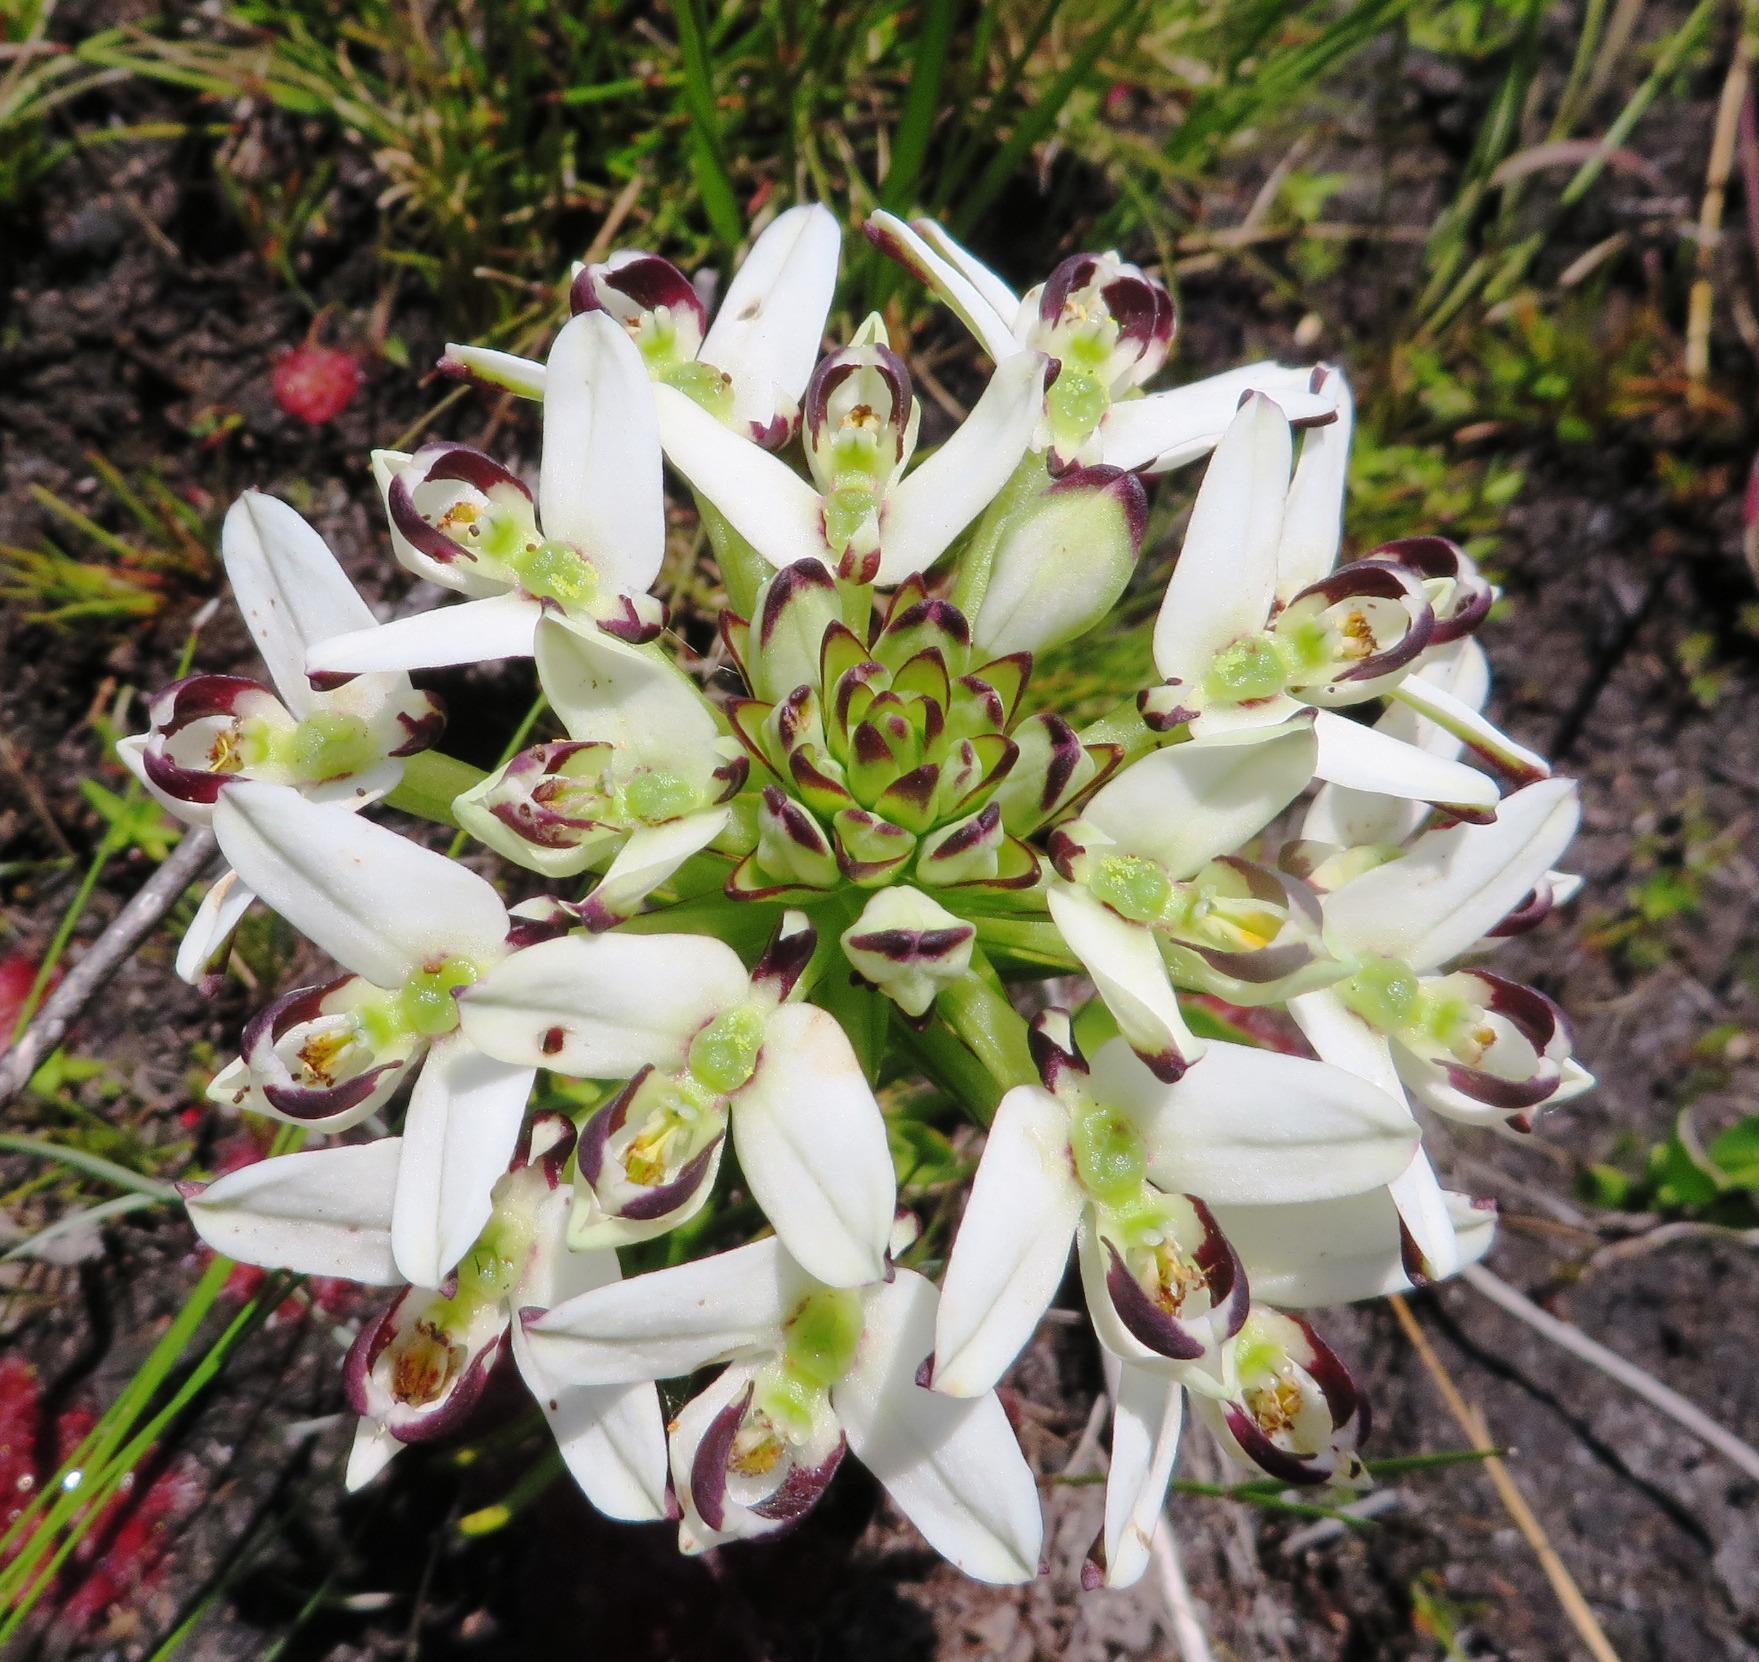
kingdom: Plantae
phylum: Tracheophyta
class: Liliopsida
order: Asparagales
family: Orchidaceae
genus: Disa
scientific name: Disa bivalvata
